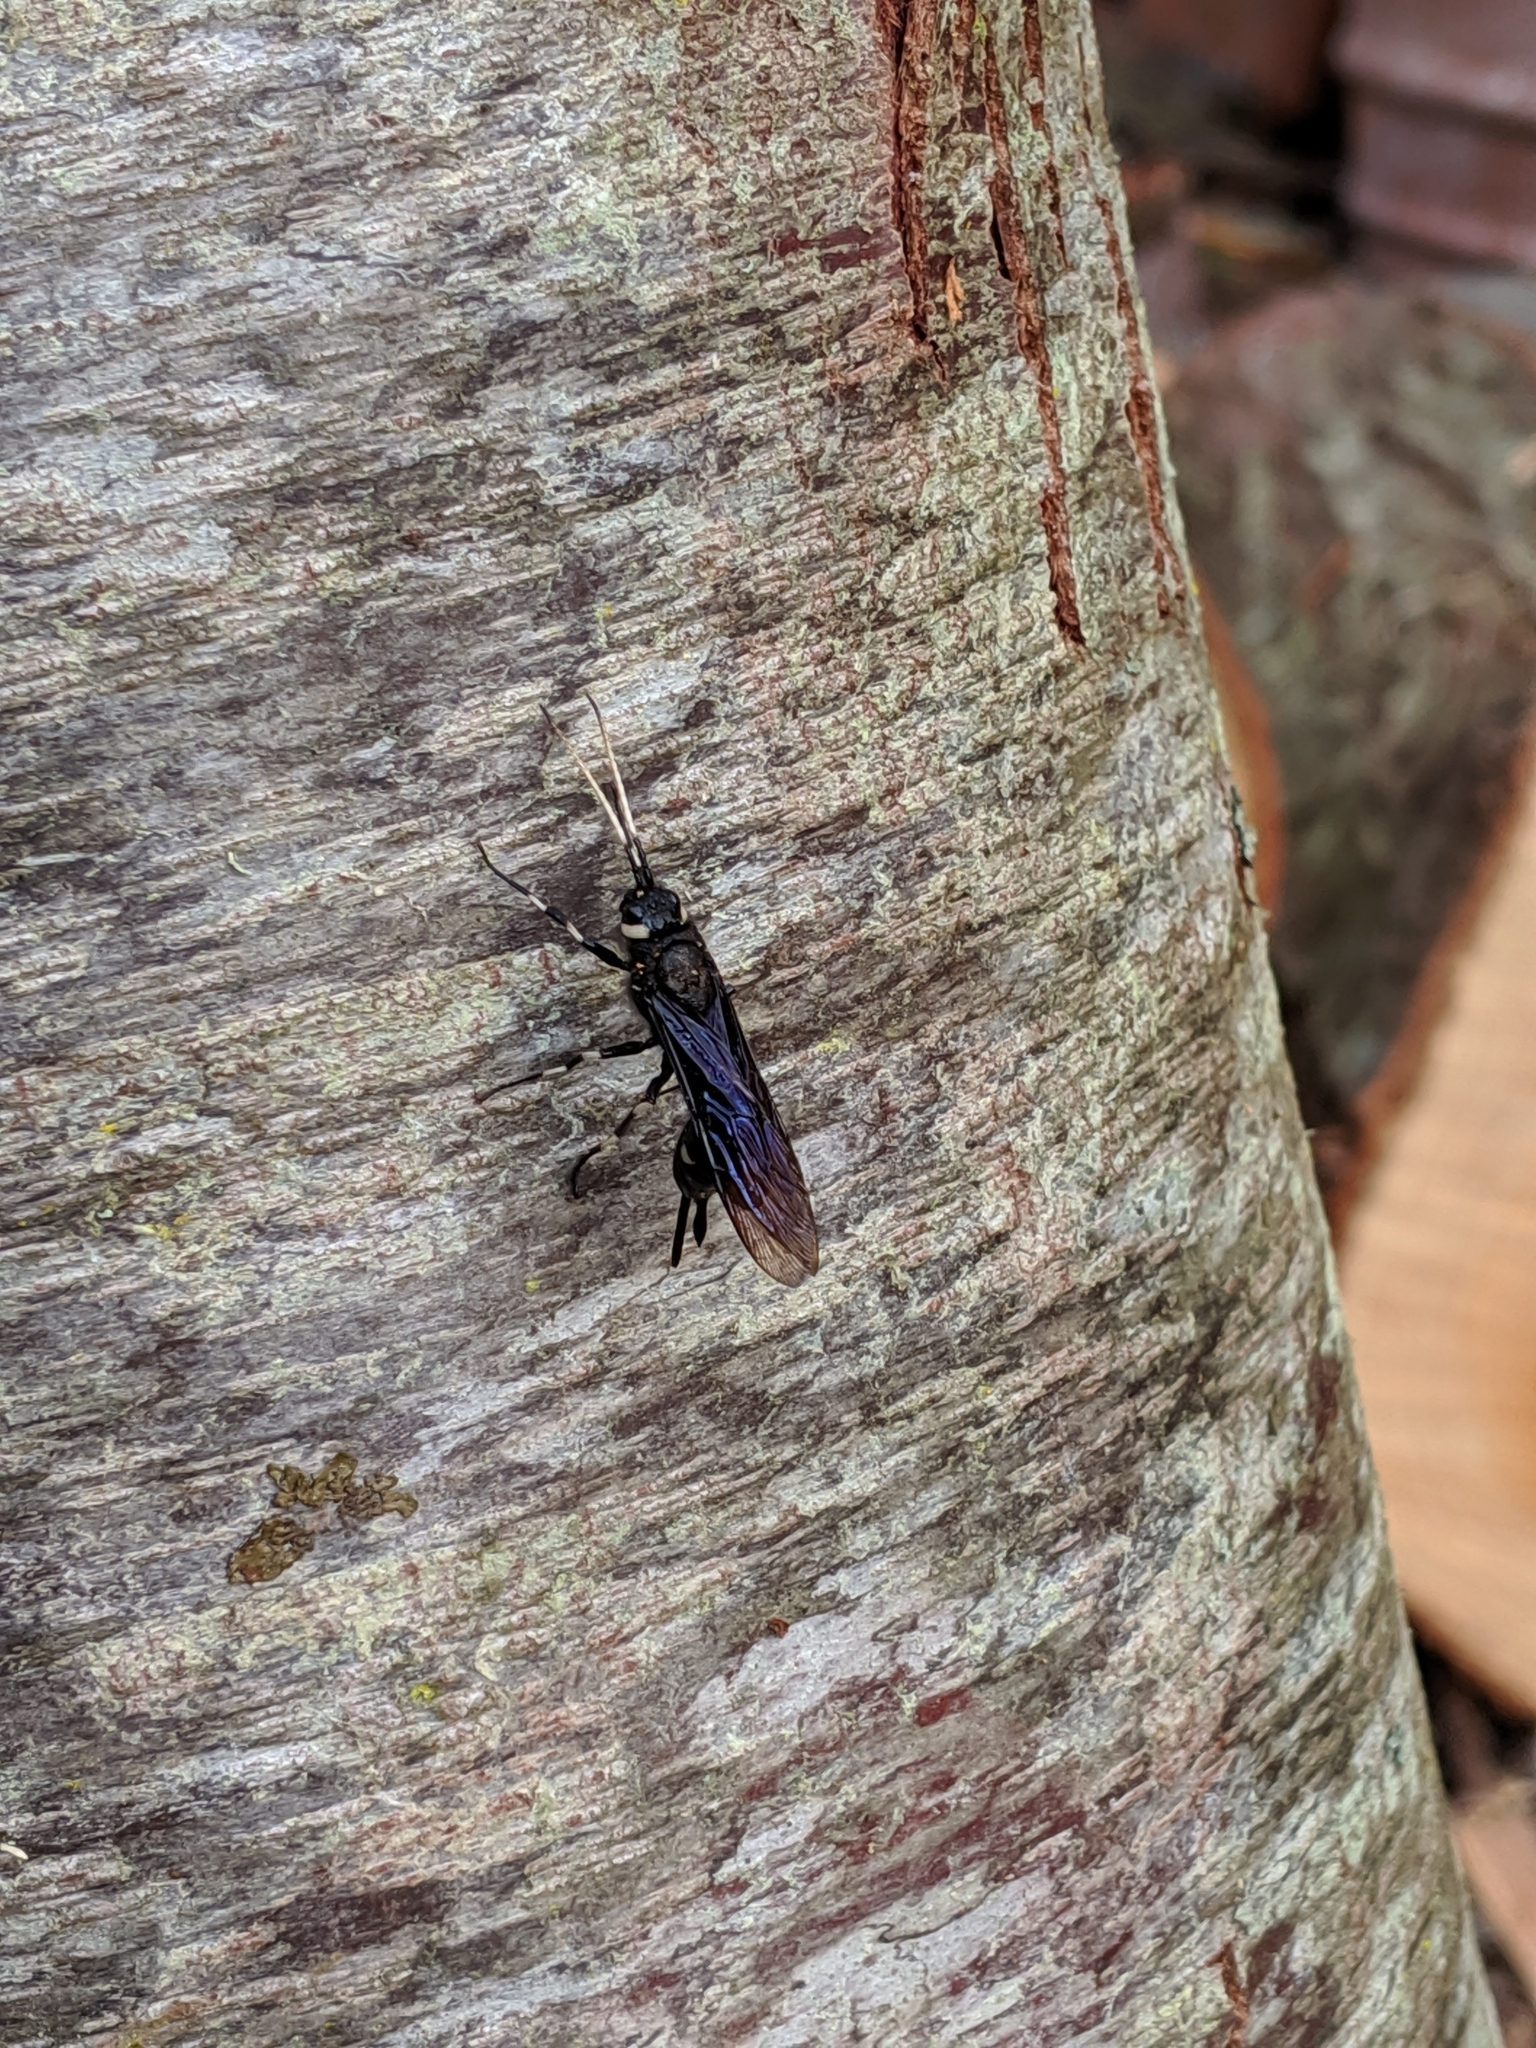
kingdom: Animalia
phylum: Arthropoda
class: Insecta
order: Hymenoptera
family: Siricidae
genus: Urocerus
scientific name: Urocerus albicornis
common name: White-horned horntail
